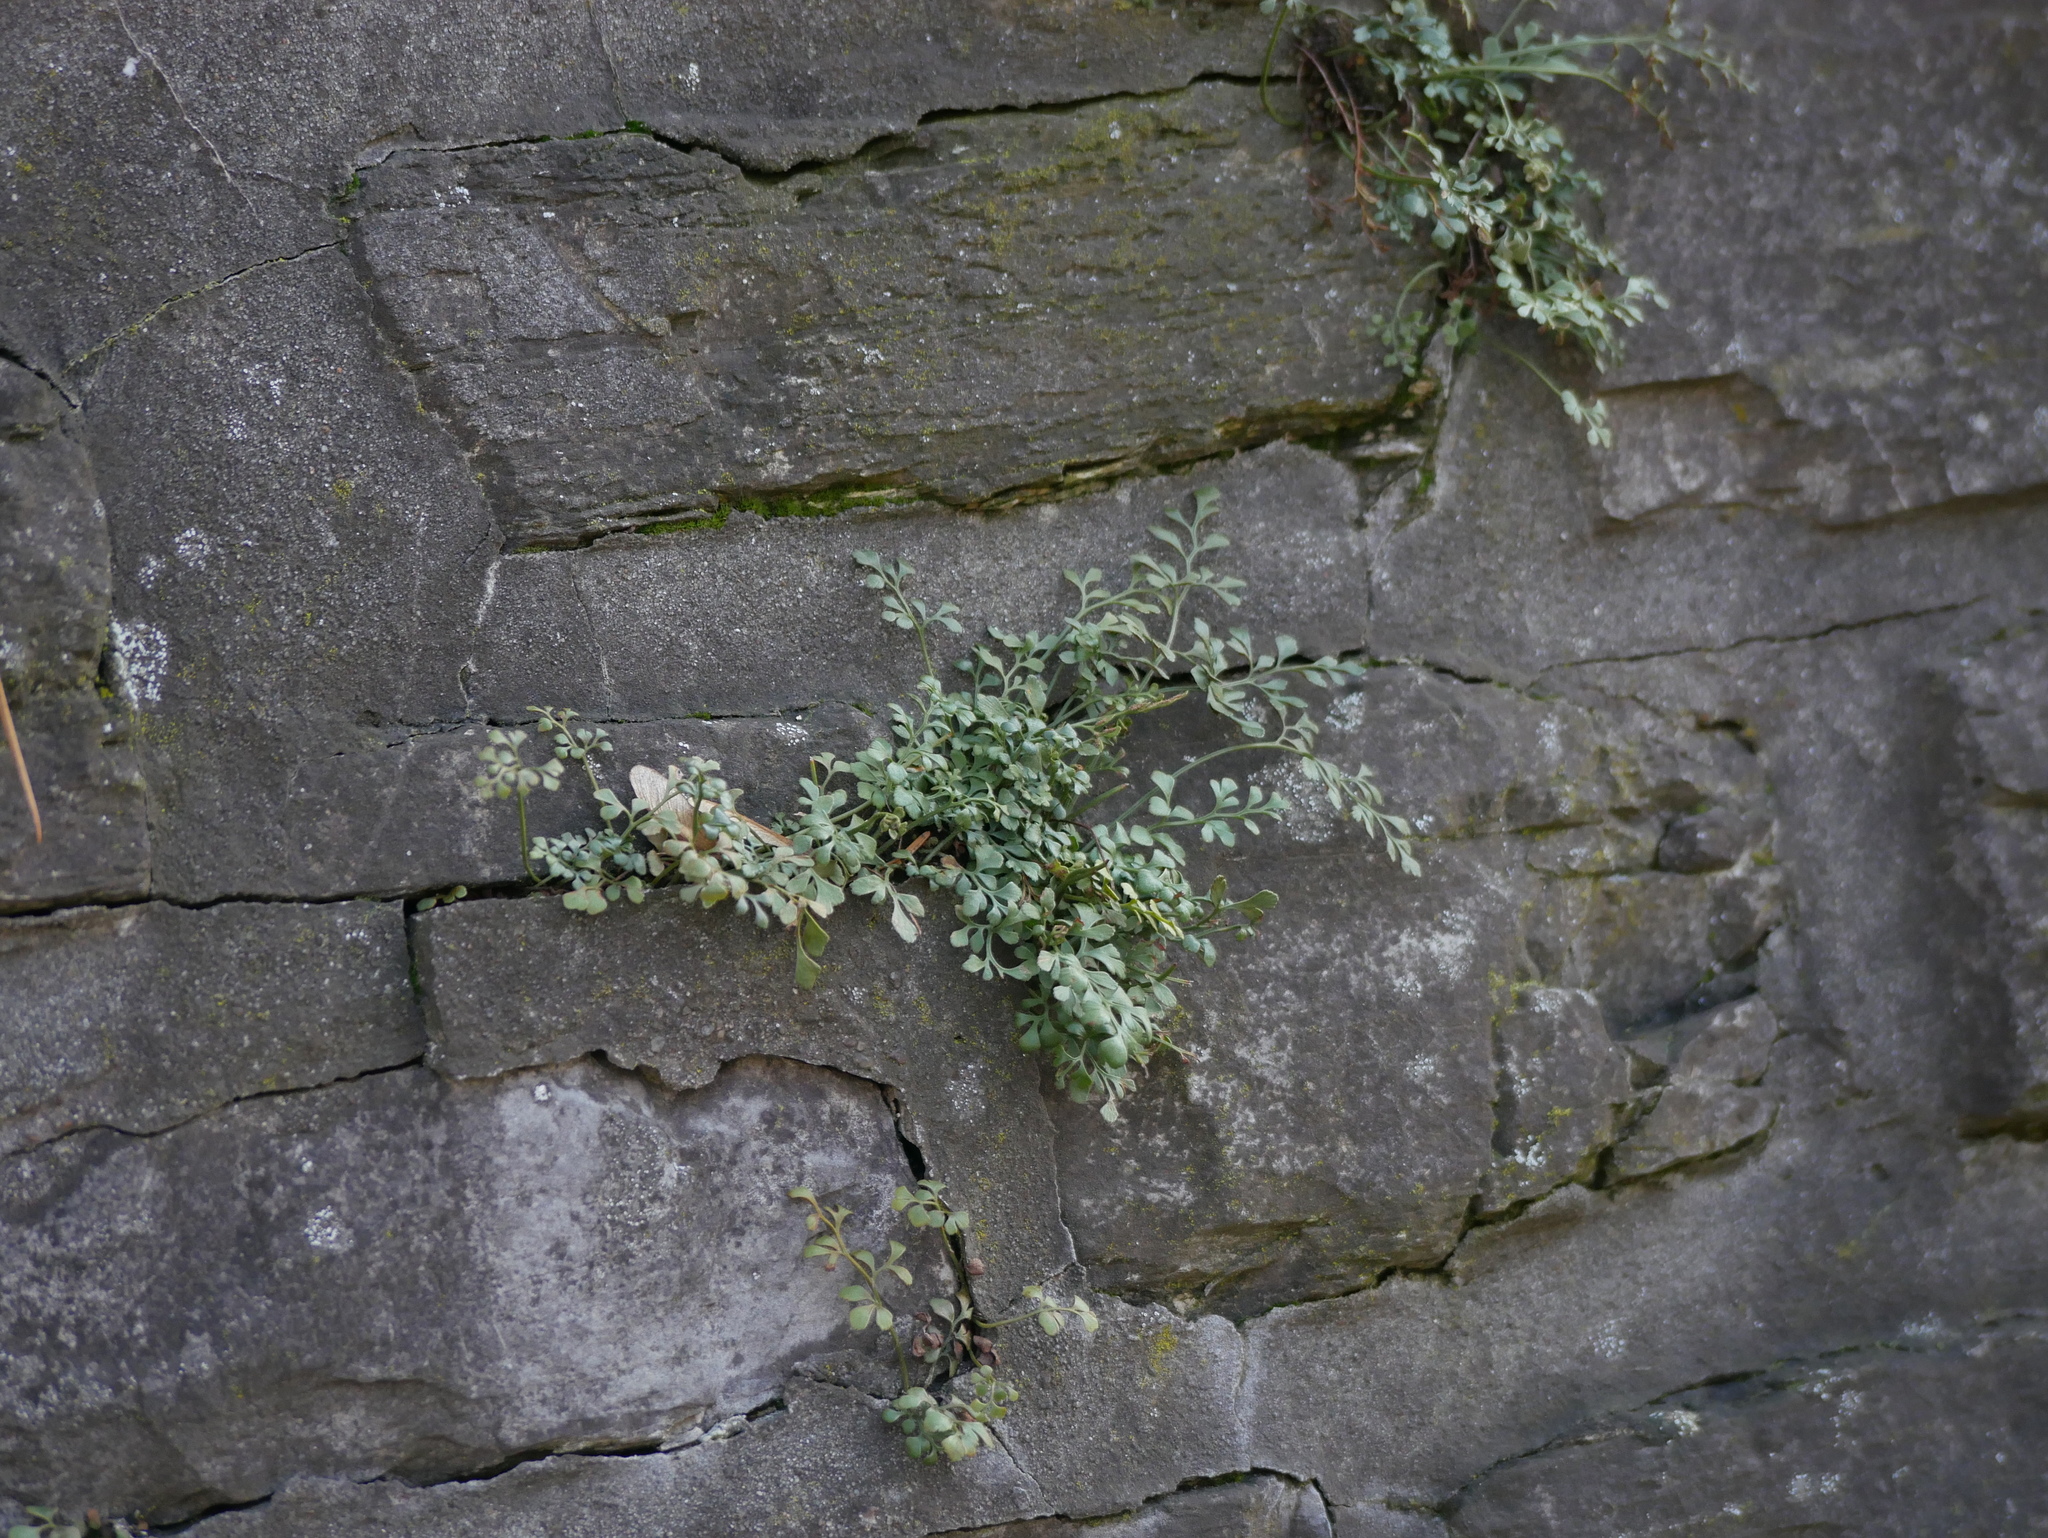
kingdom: Plantae
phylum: Tracheophyta
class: Polypodiopsida
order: Polypodiales
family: Aspleniaceae
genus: Asplenium
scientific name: Asplenium ruta-muraria
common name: Wall-rue
